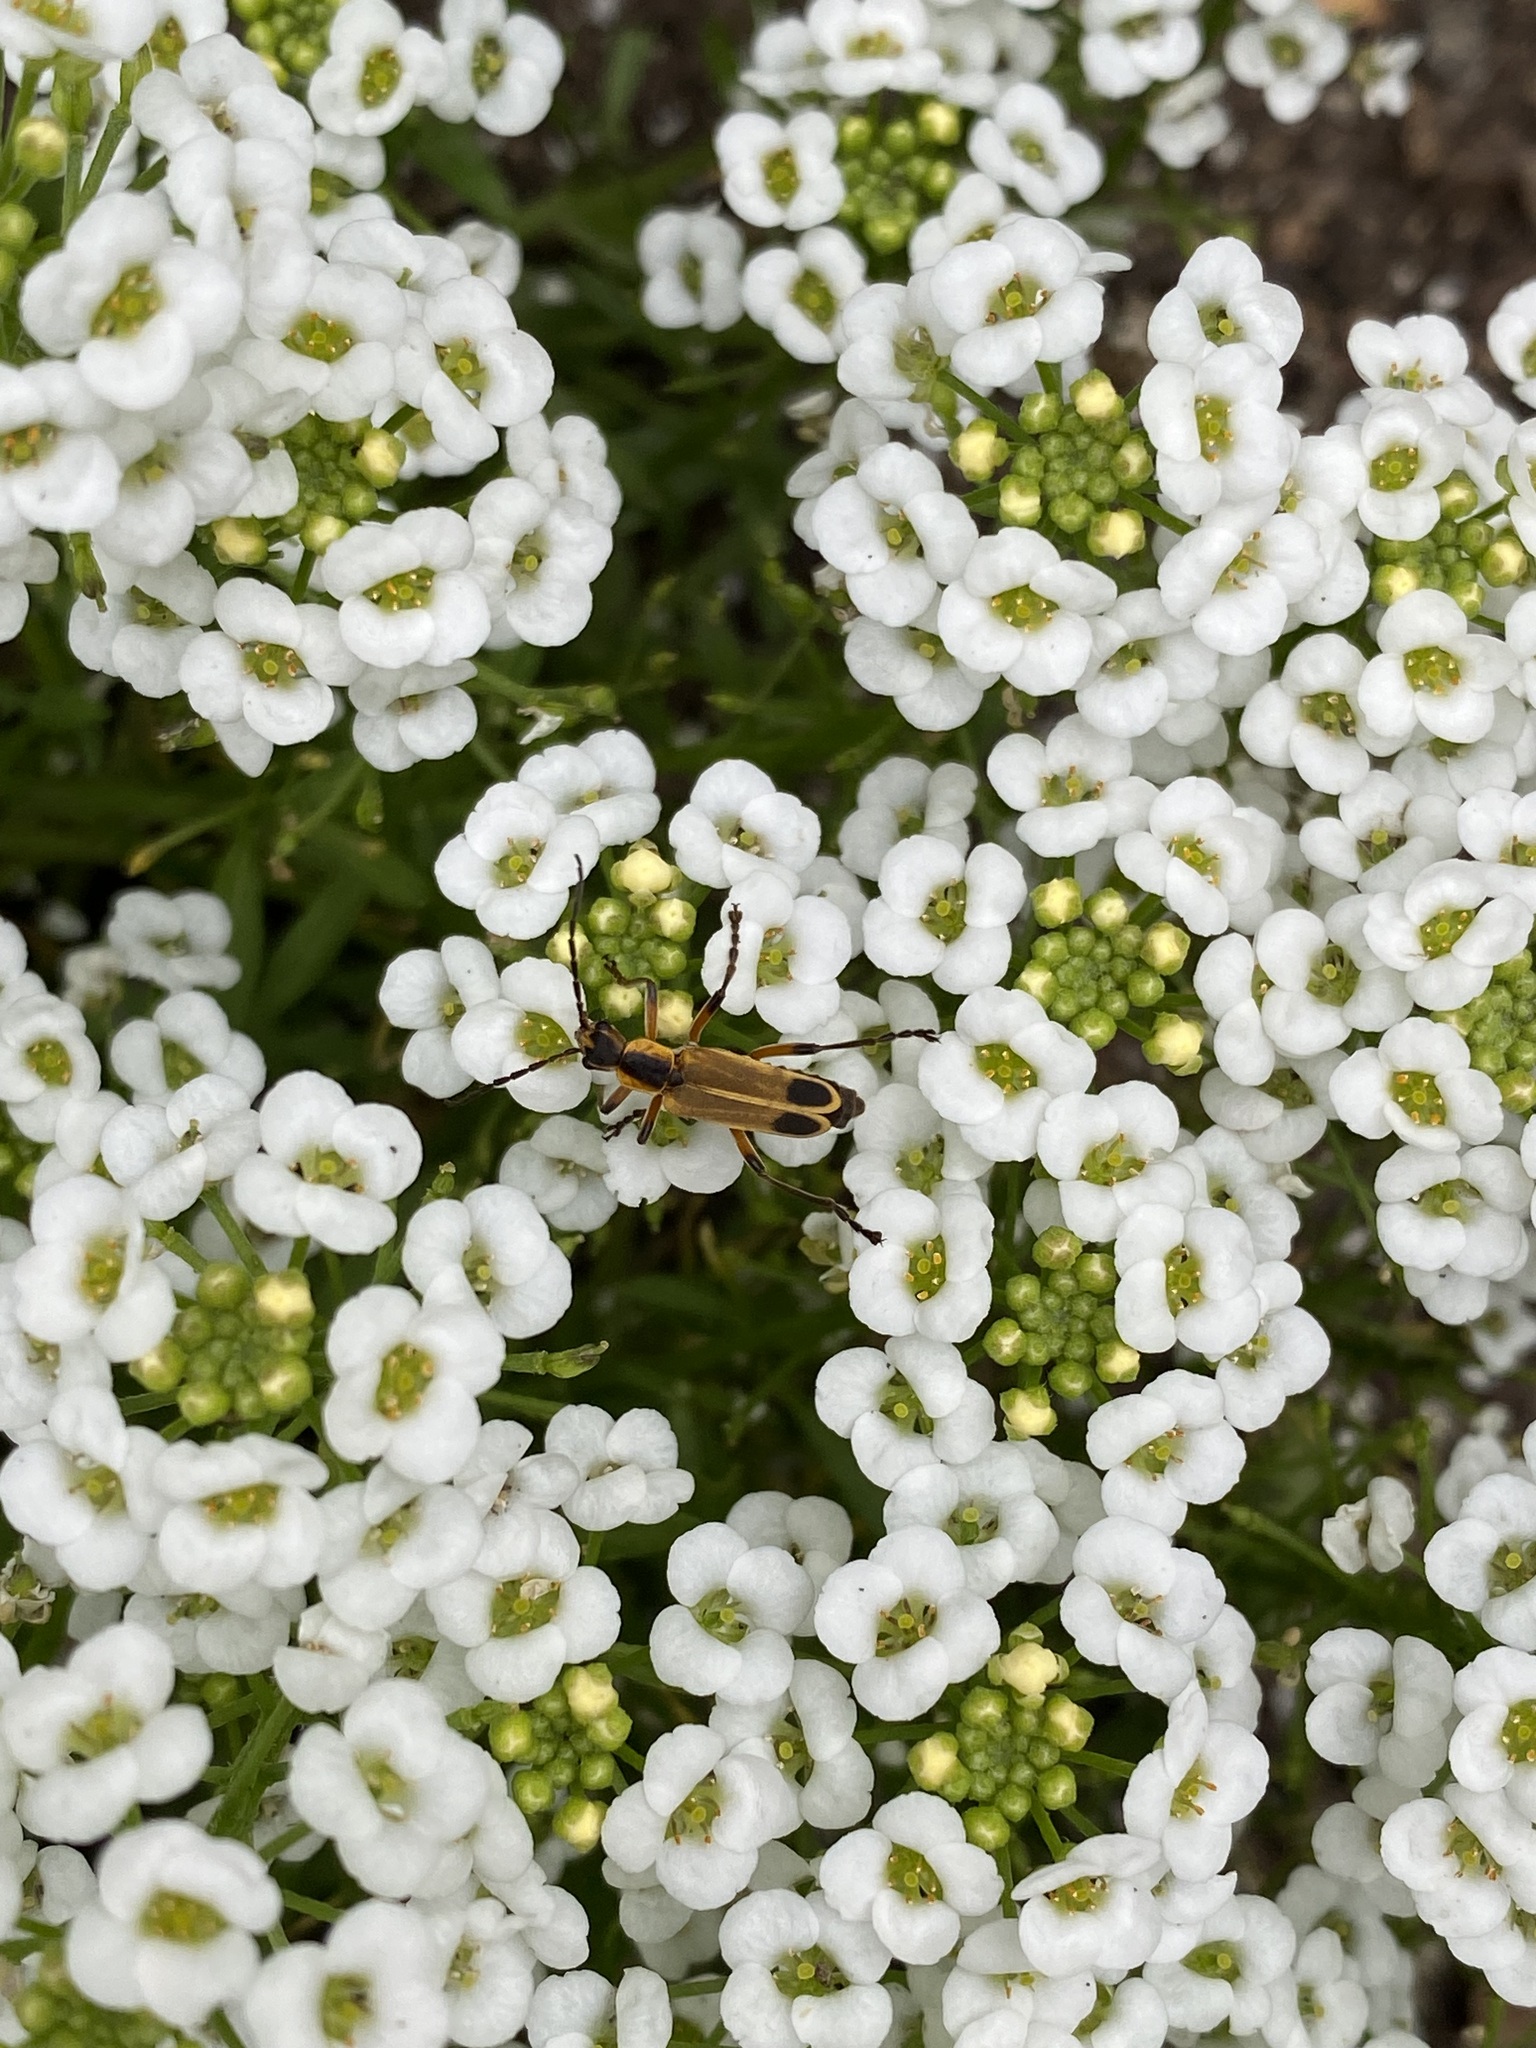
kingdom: Animalia
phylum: Arthropoda
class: Insecta
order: Coleoptera
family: Cantharidae
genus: Chauliognathus
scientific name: Chauliognathus marginatus
